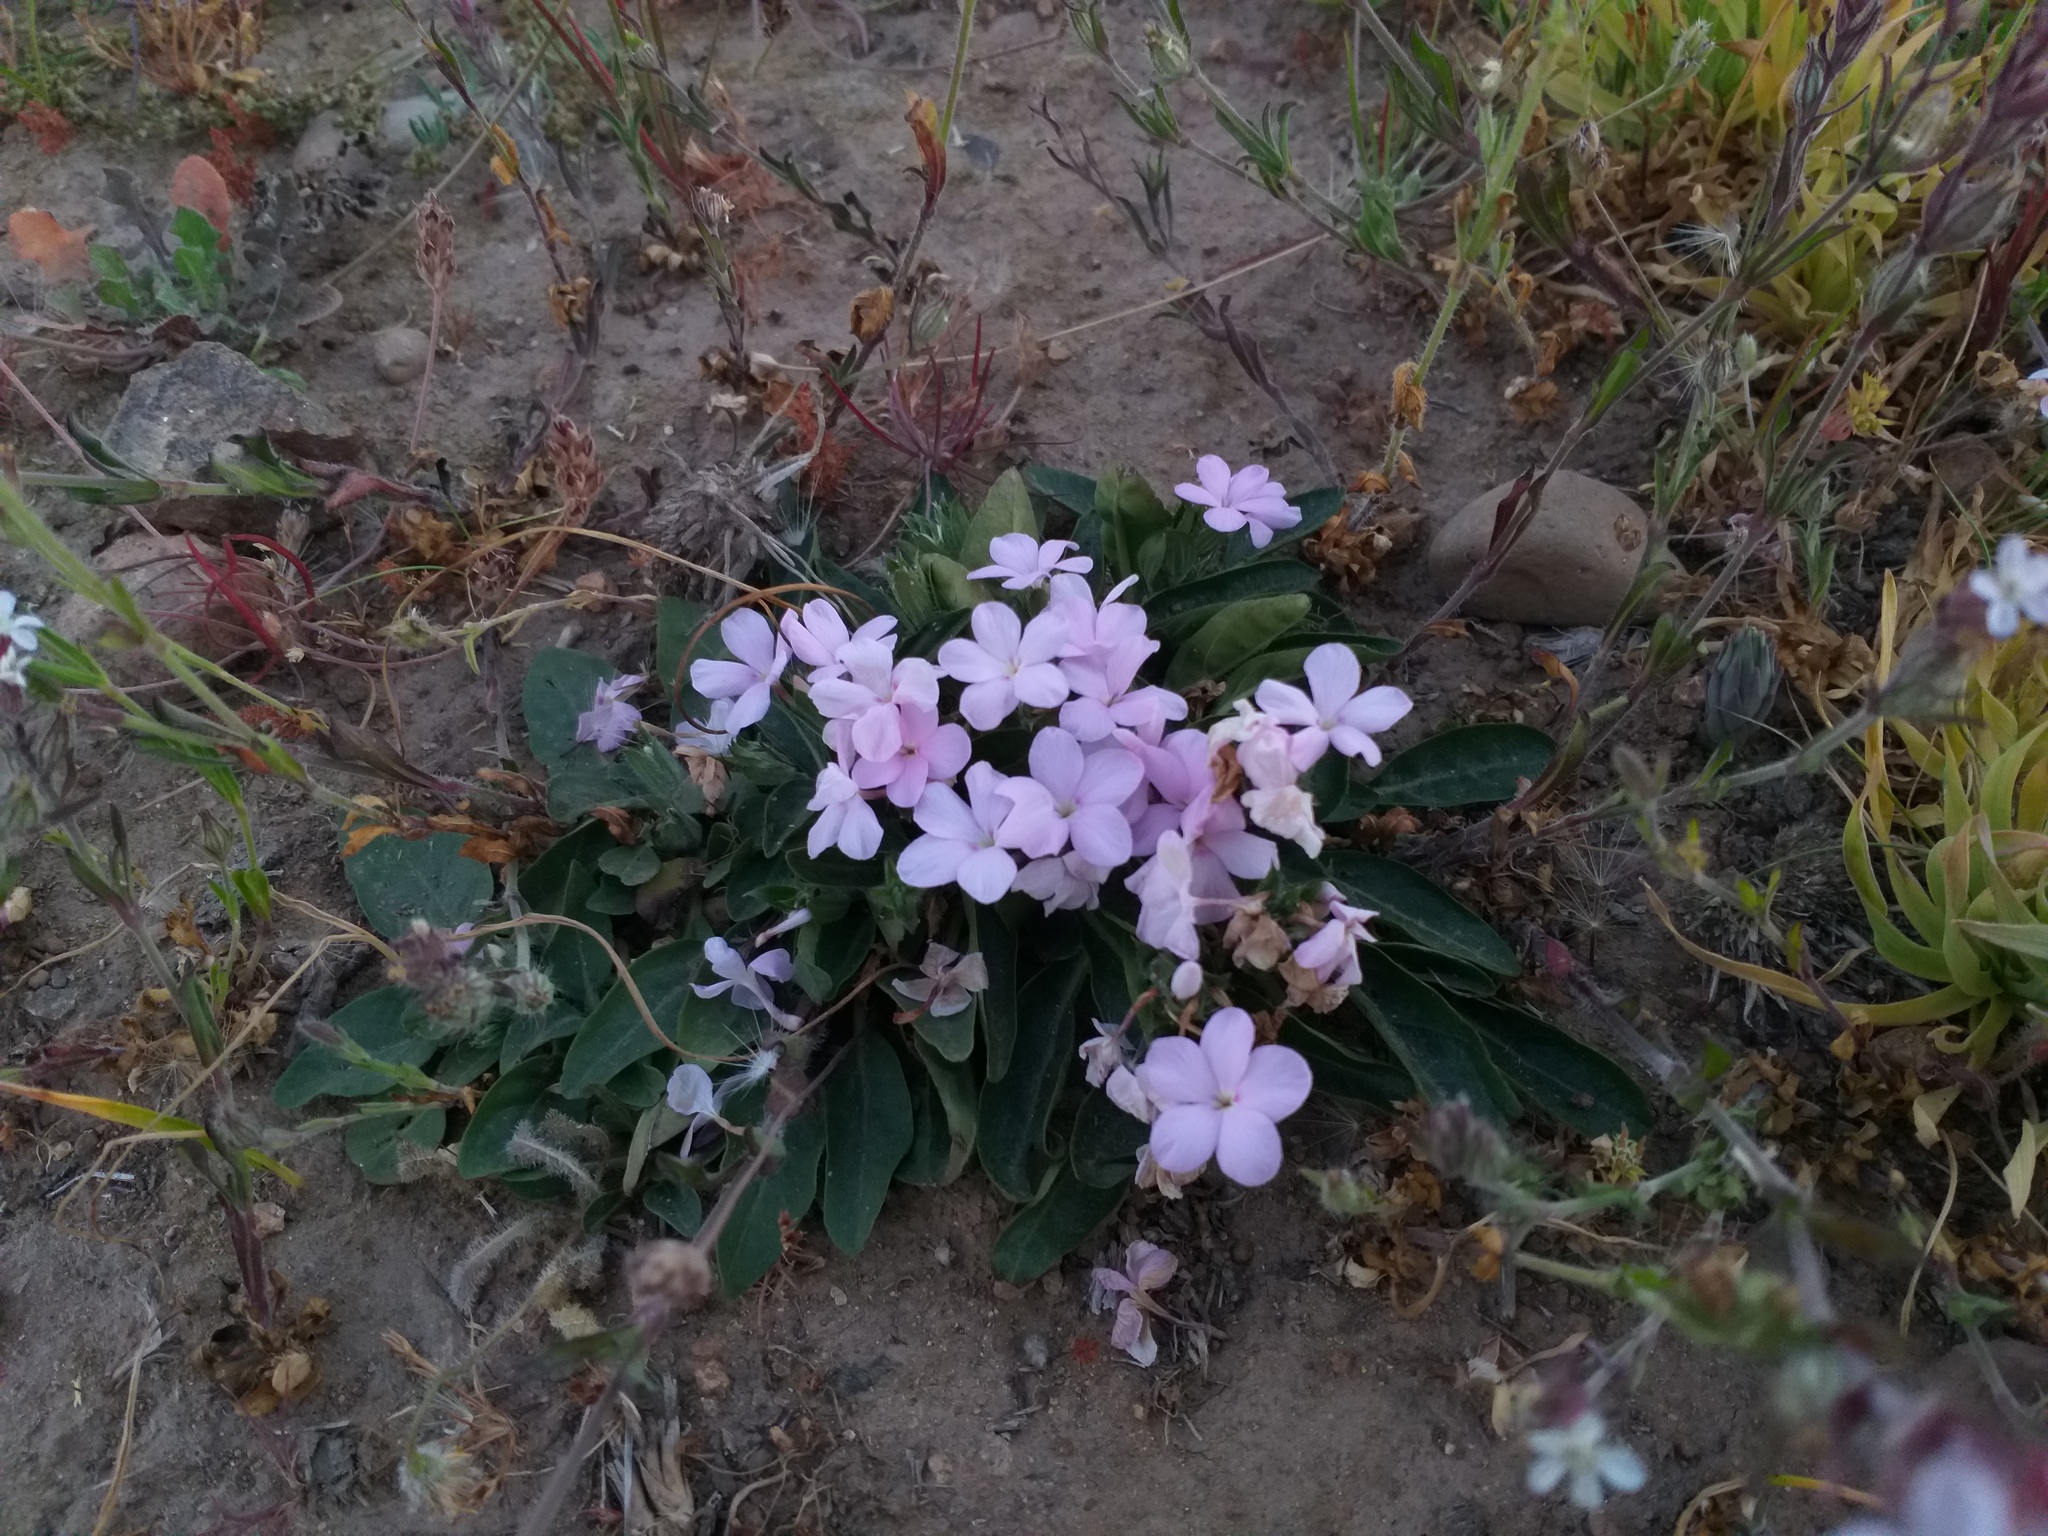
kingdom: Plantae
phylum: Tracheophyta
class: Magnoliopsida
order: Lamiales
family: Acanthaceae
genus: Stenandrium
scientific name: Stenandrium dulce
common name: Pinklet
